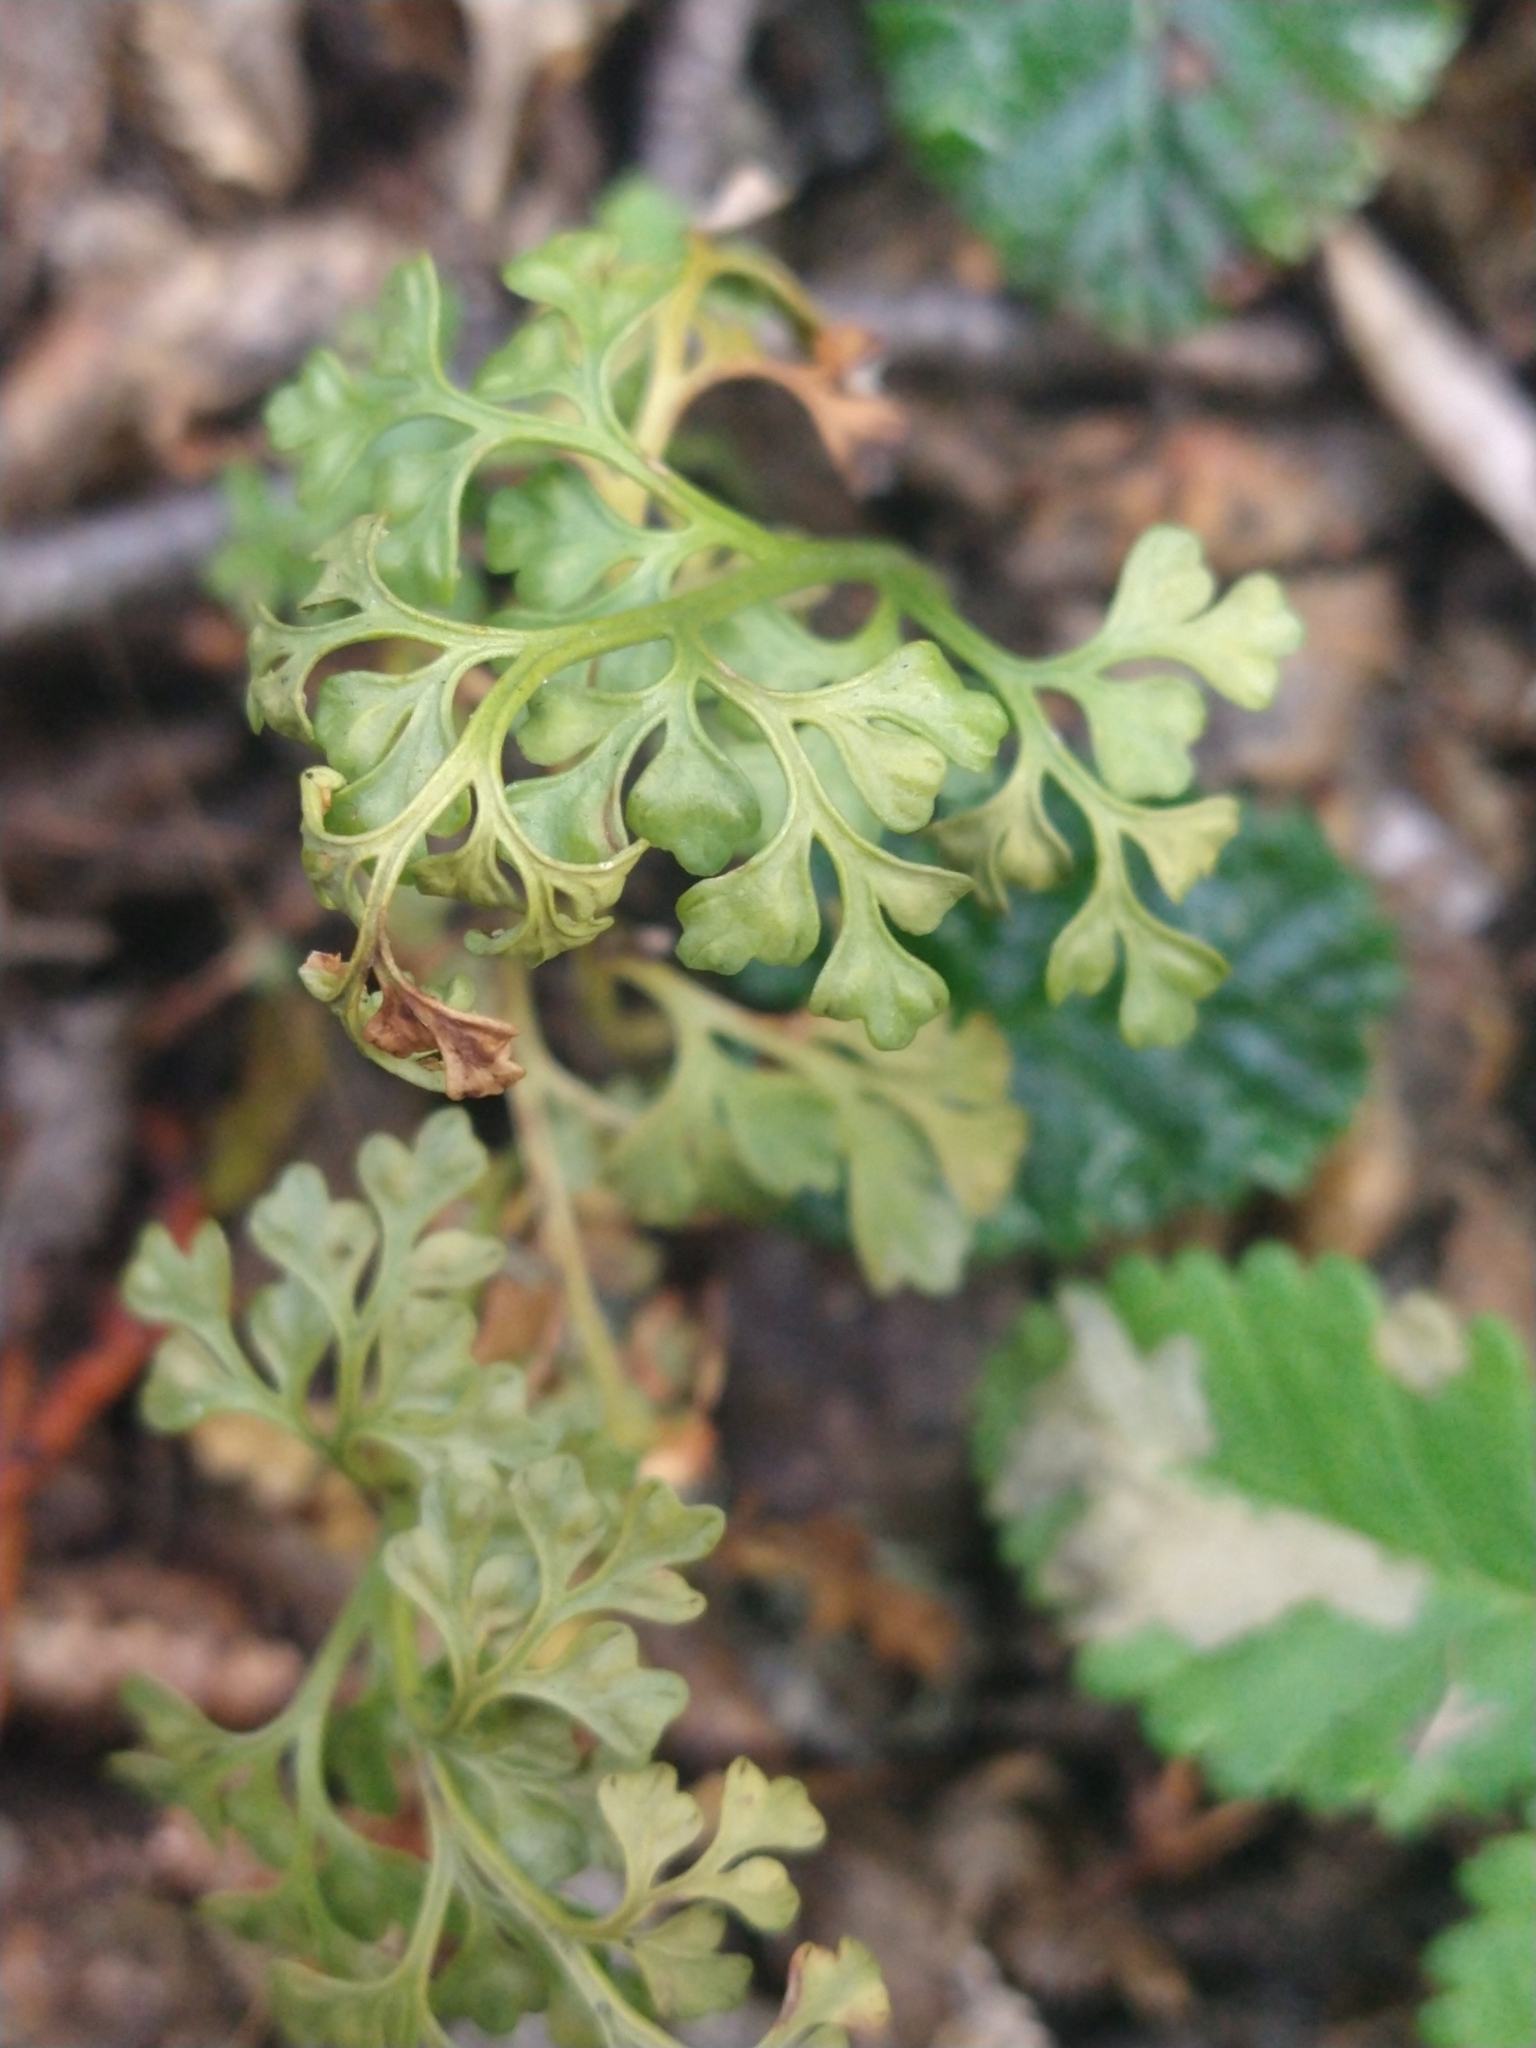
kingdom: Plantae
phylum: Tracheophyta
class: Polypodiopsida
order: Polypodiales
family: Aspleniaceae
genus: Asplenium
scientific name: Asplenium dareoides
